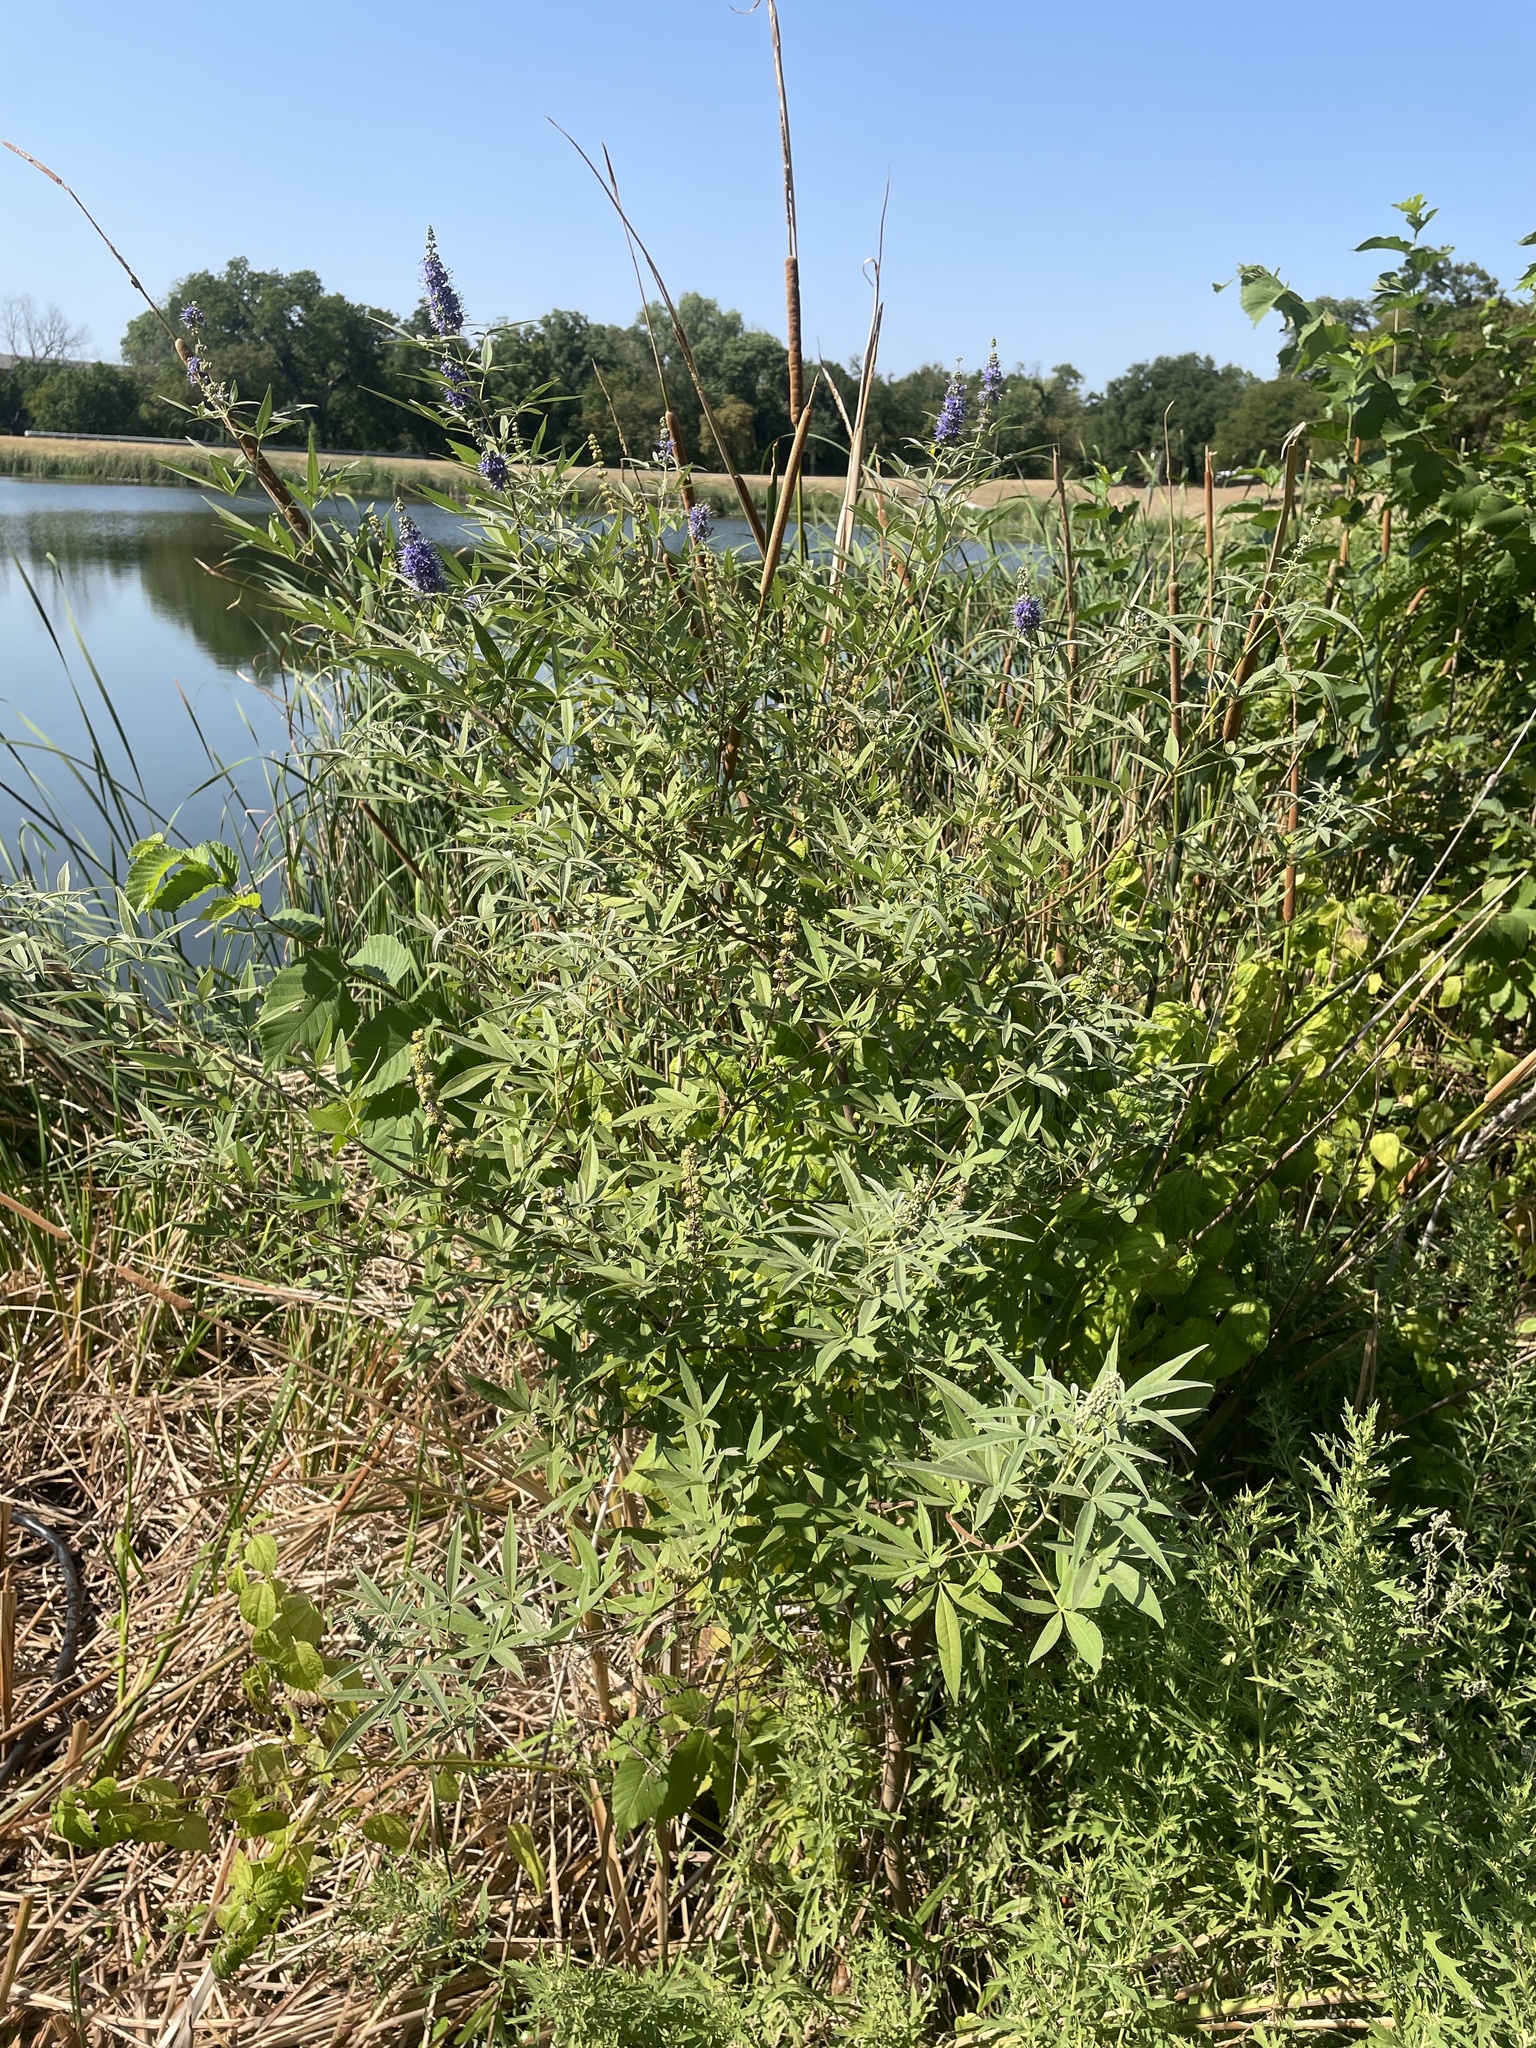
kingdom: Plantae
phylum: Tracheophyta
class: Magnoliopsida
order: Lamiales
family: Lamiaceae
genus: Vitex
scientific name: Vitex agnus-castus
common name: Chasteberry
